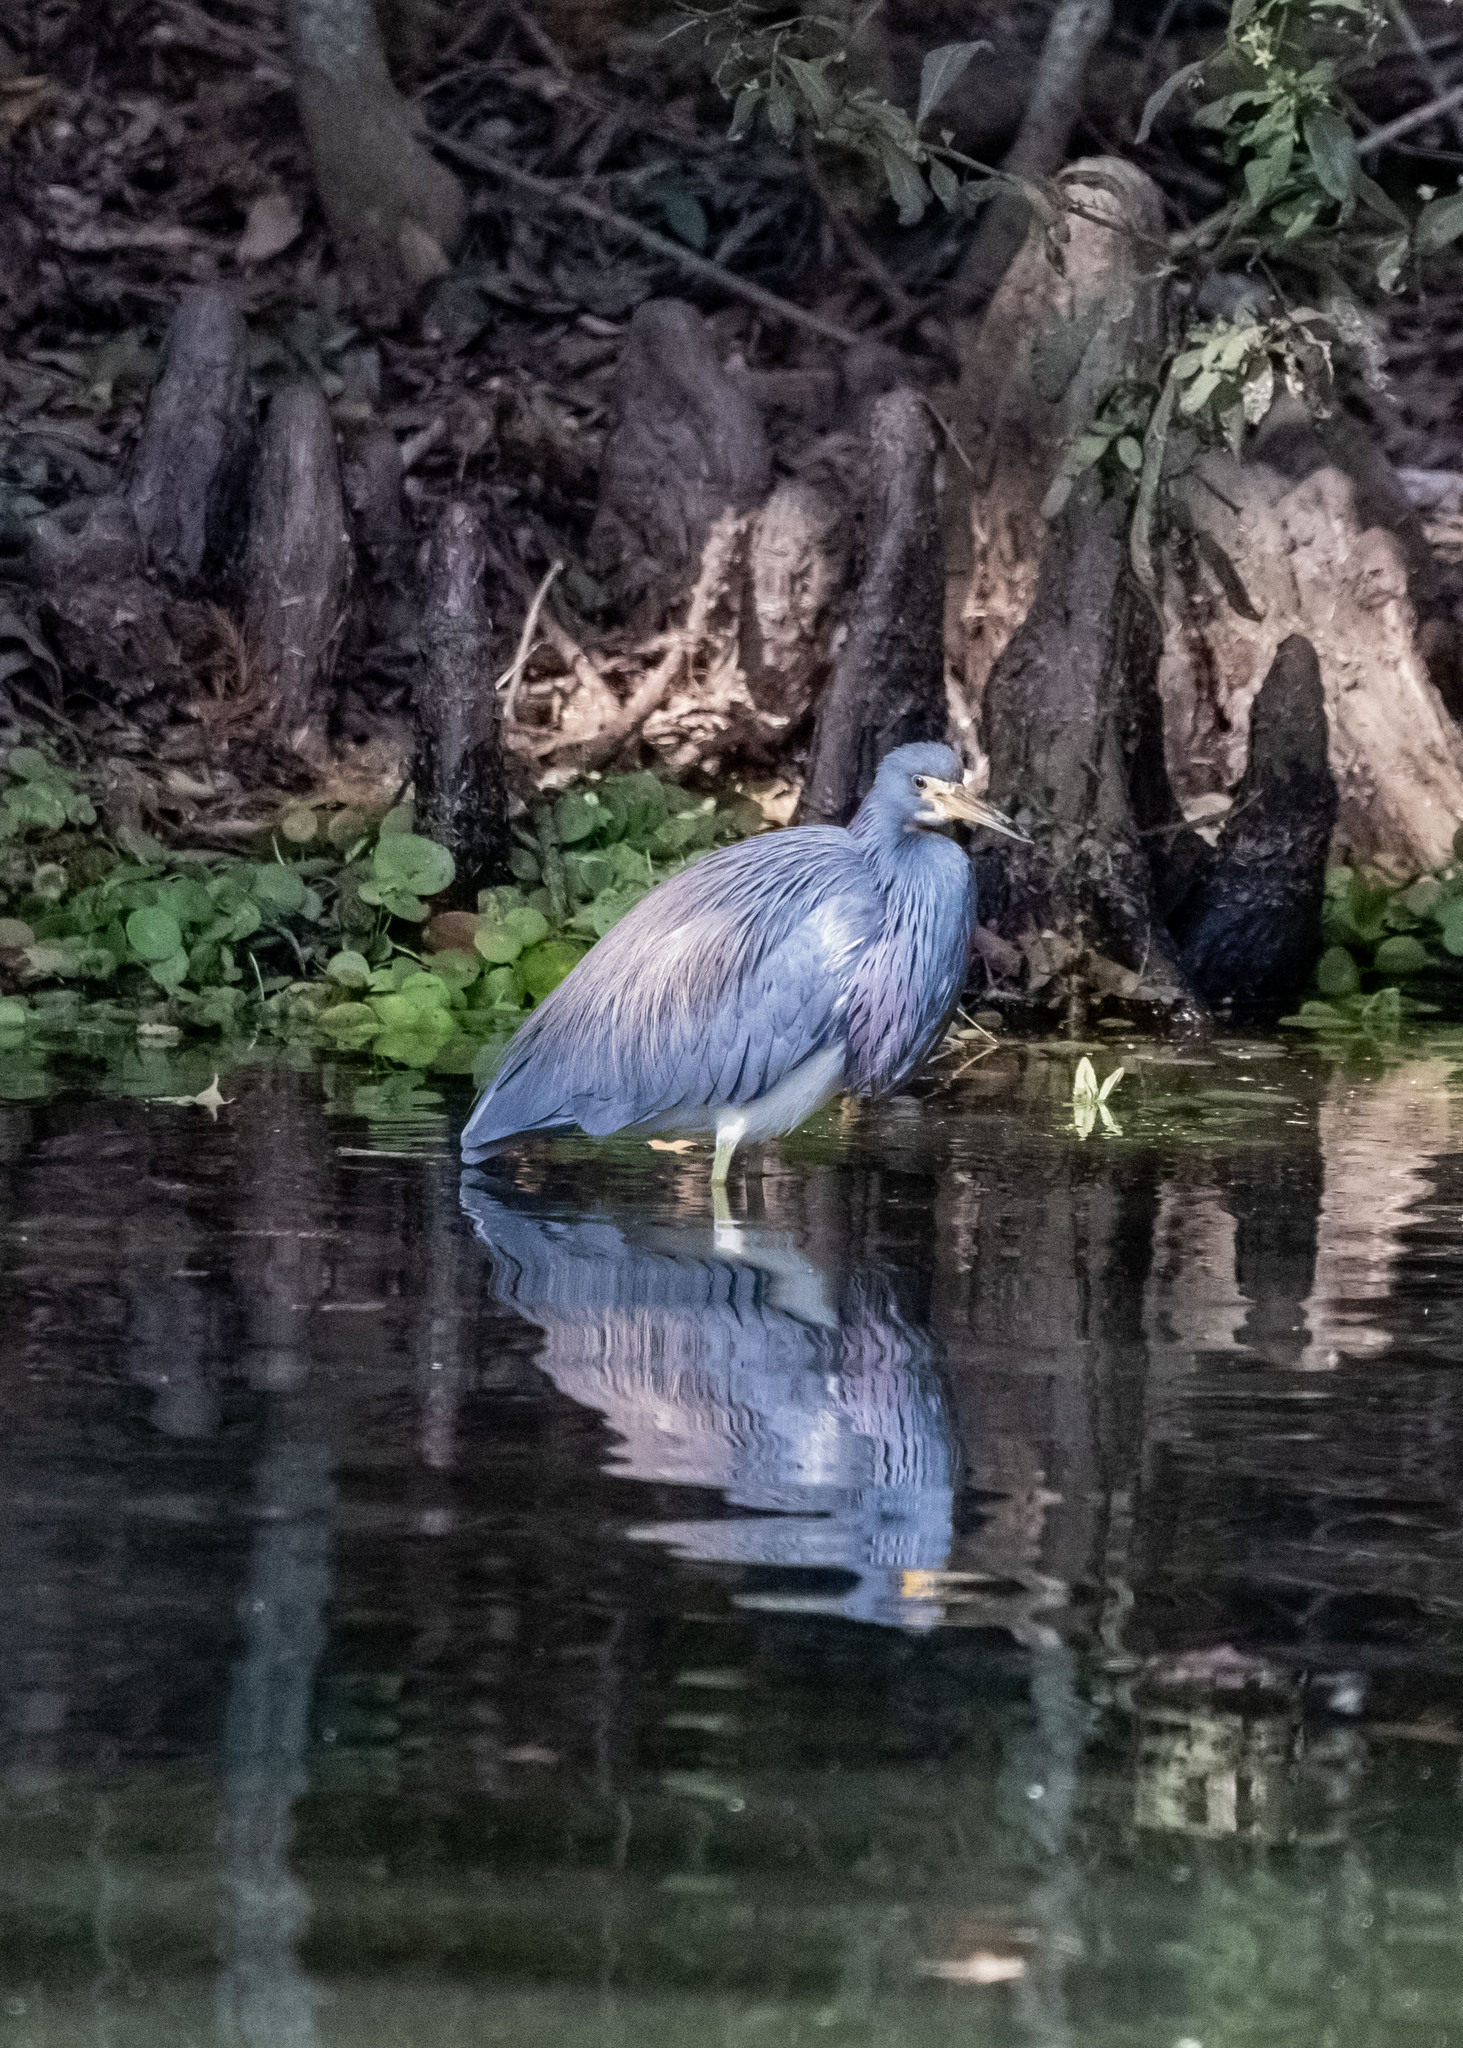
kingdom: Animalia
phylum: Chordata
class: Aves
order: Pelecaniformes
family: Ardeidae
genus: Egretta
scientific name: Egretta tricolor
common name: Tricolored heron
